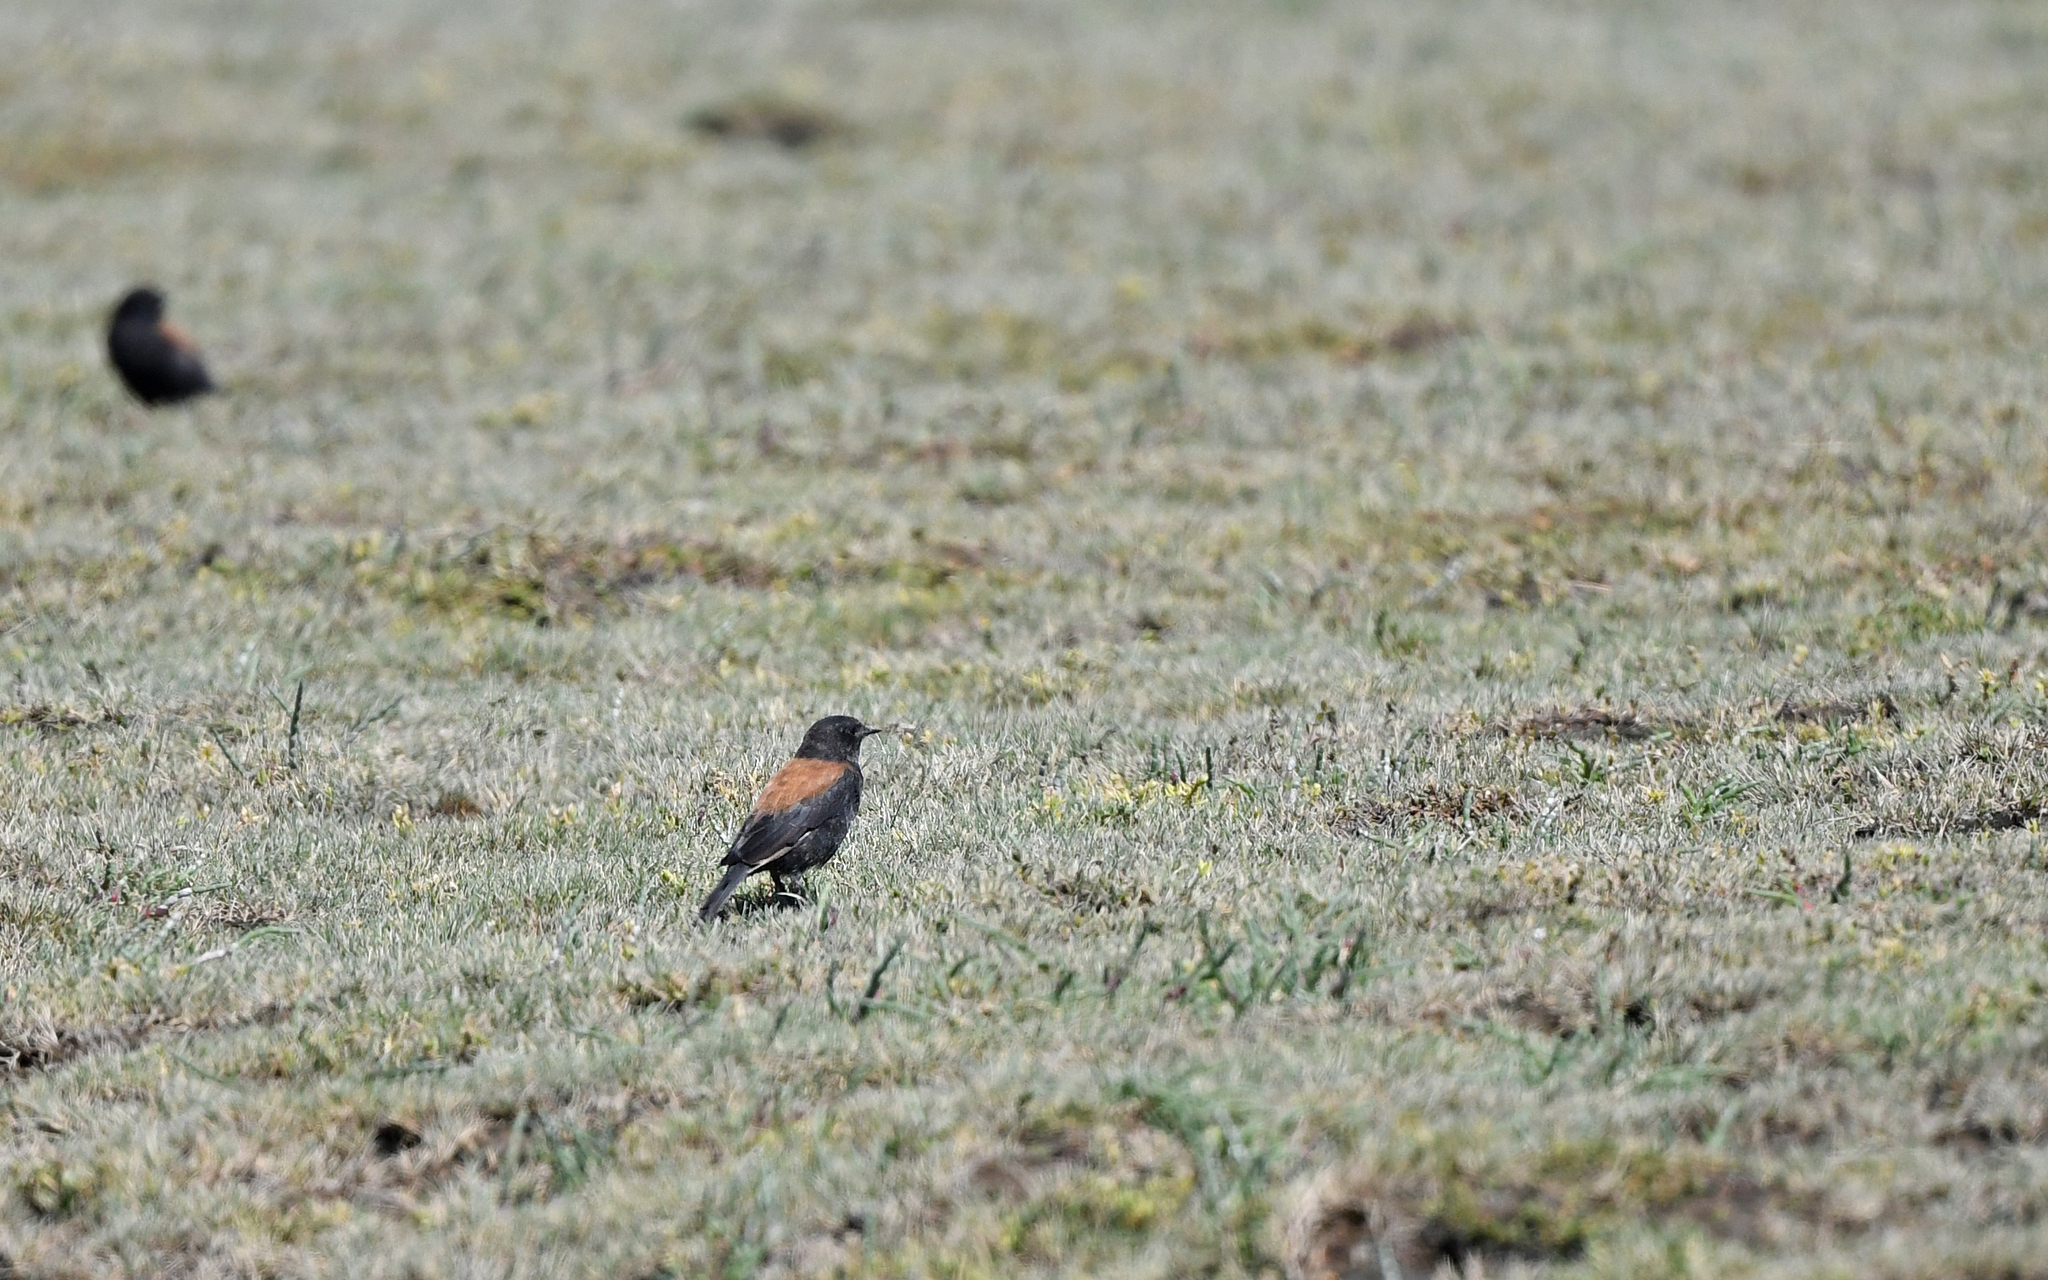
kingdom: Animalia
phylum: Chordata
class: Aves
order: Passeriformes
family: Tyrannidae
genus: Lessonia
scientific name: Lessonia rufa
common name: Austral negrito
